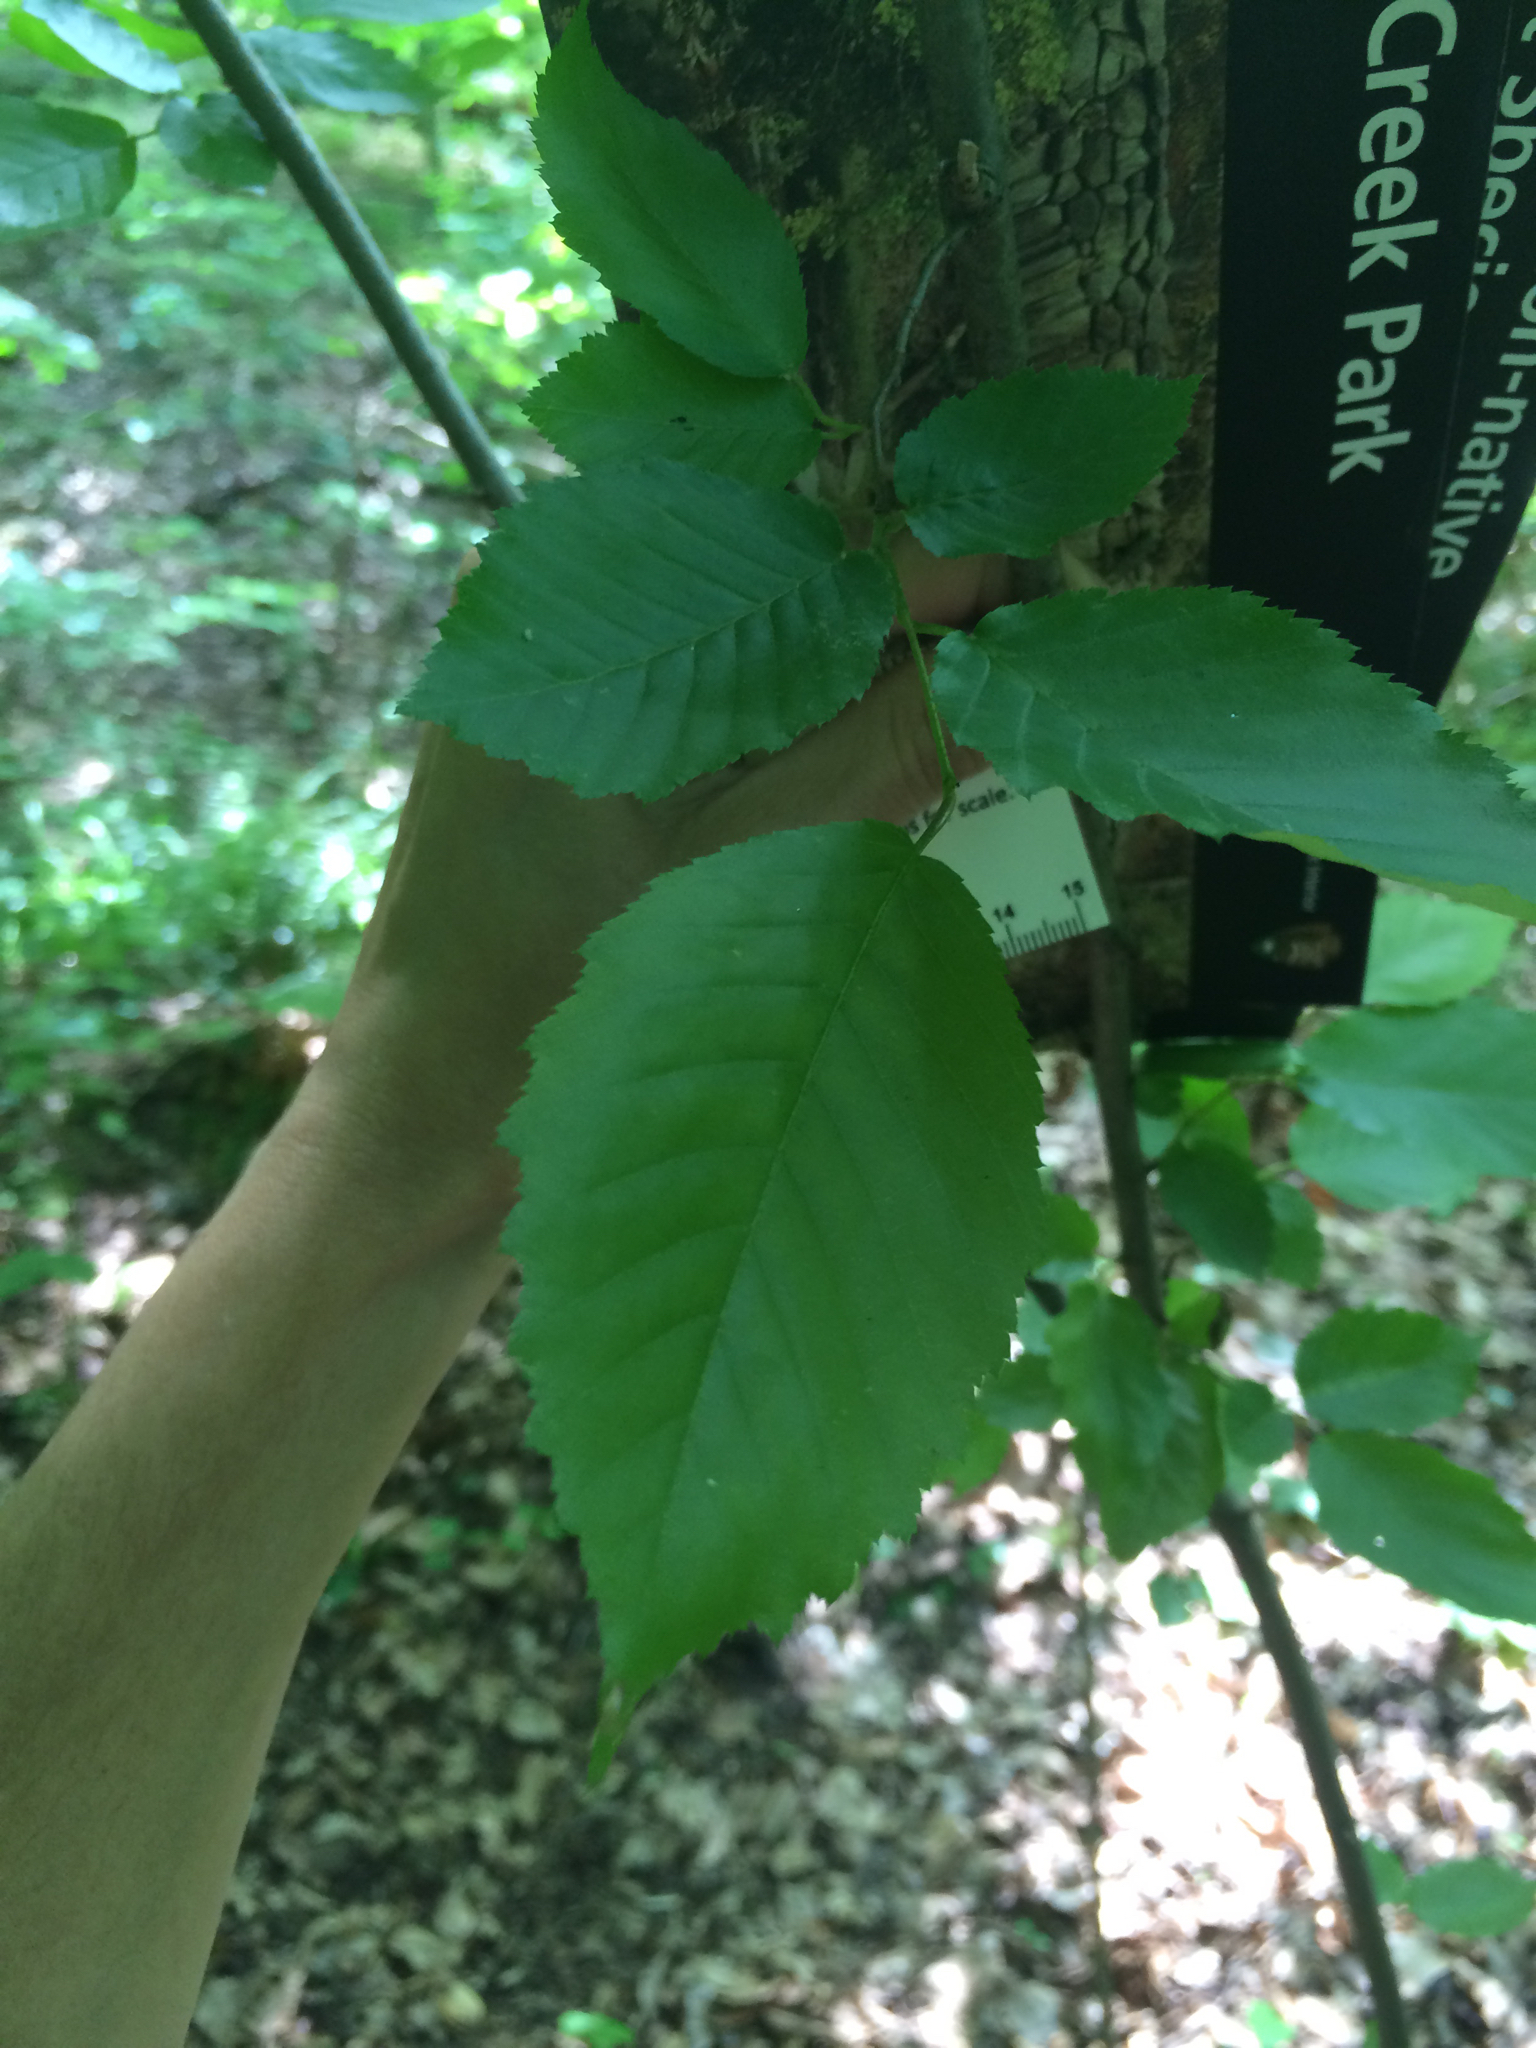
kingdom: Plantae
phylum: Tracheophyta
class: Magnoliopsida
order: Fagales
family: Betulaceae
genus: Carpinus
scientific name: Carpinus caroliniana
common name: American hornbeam
